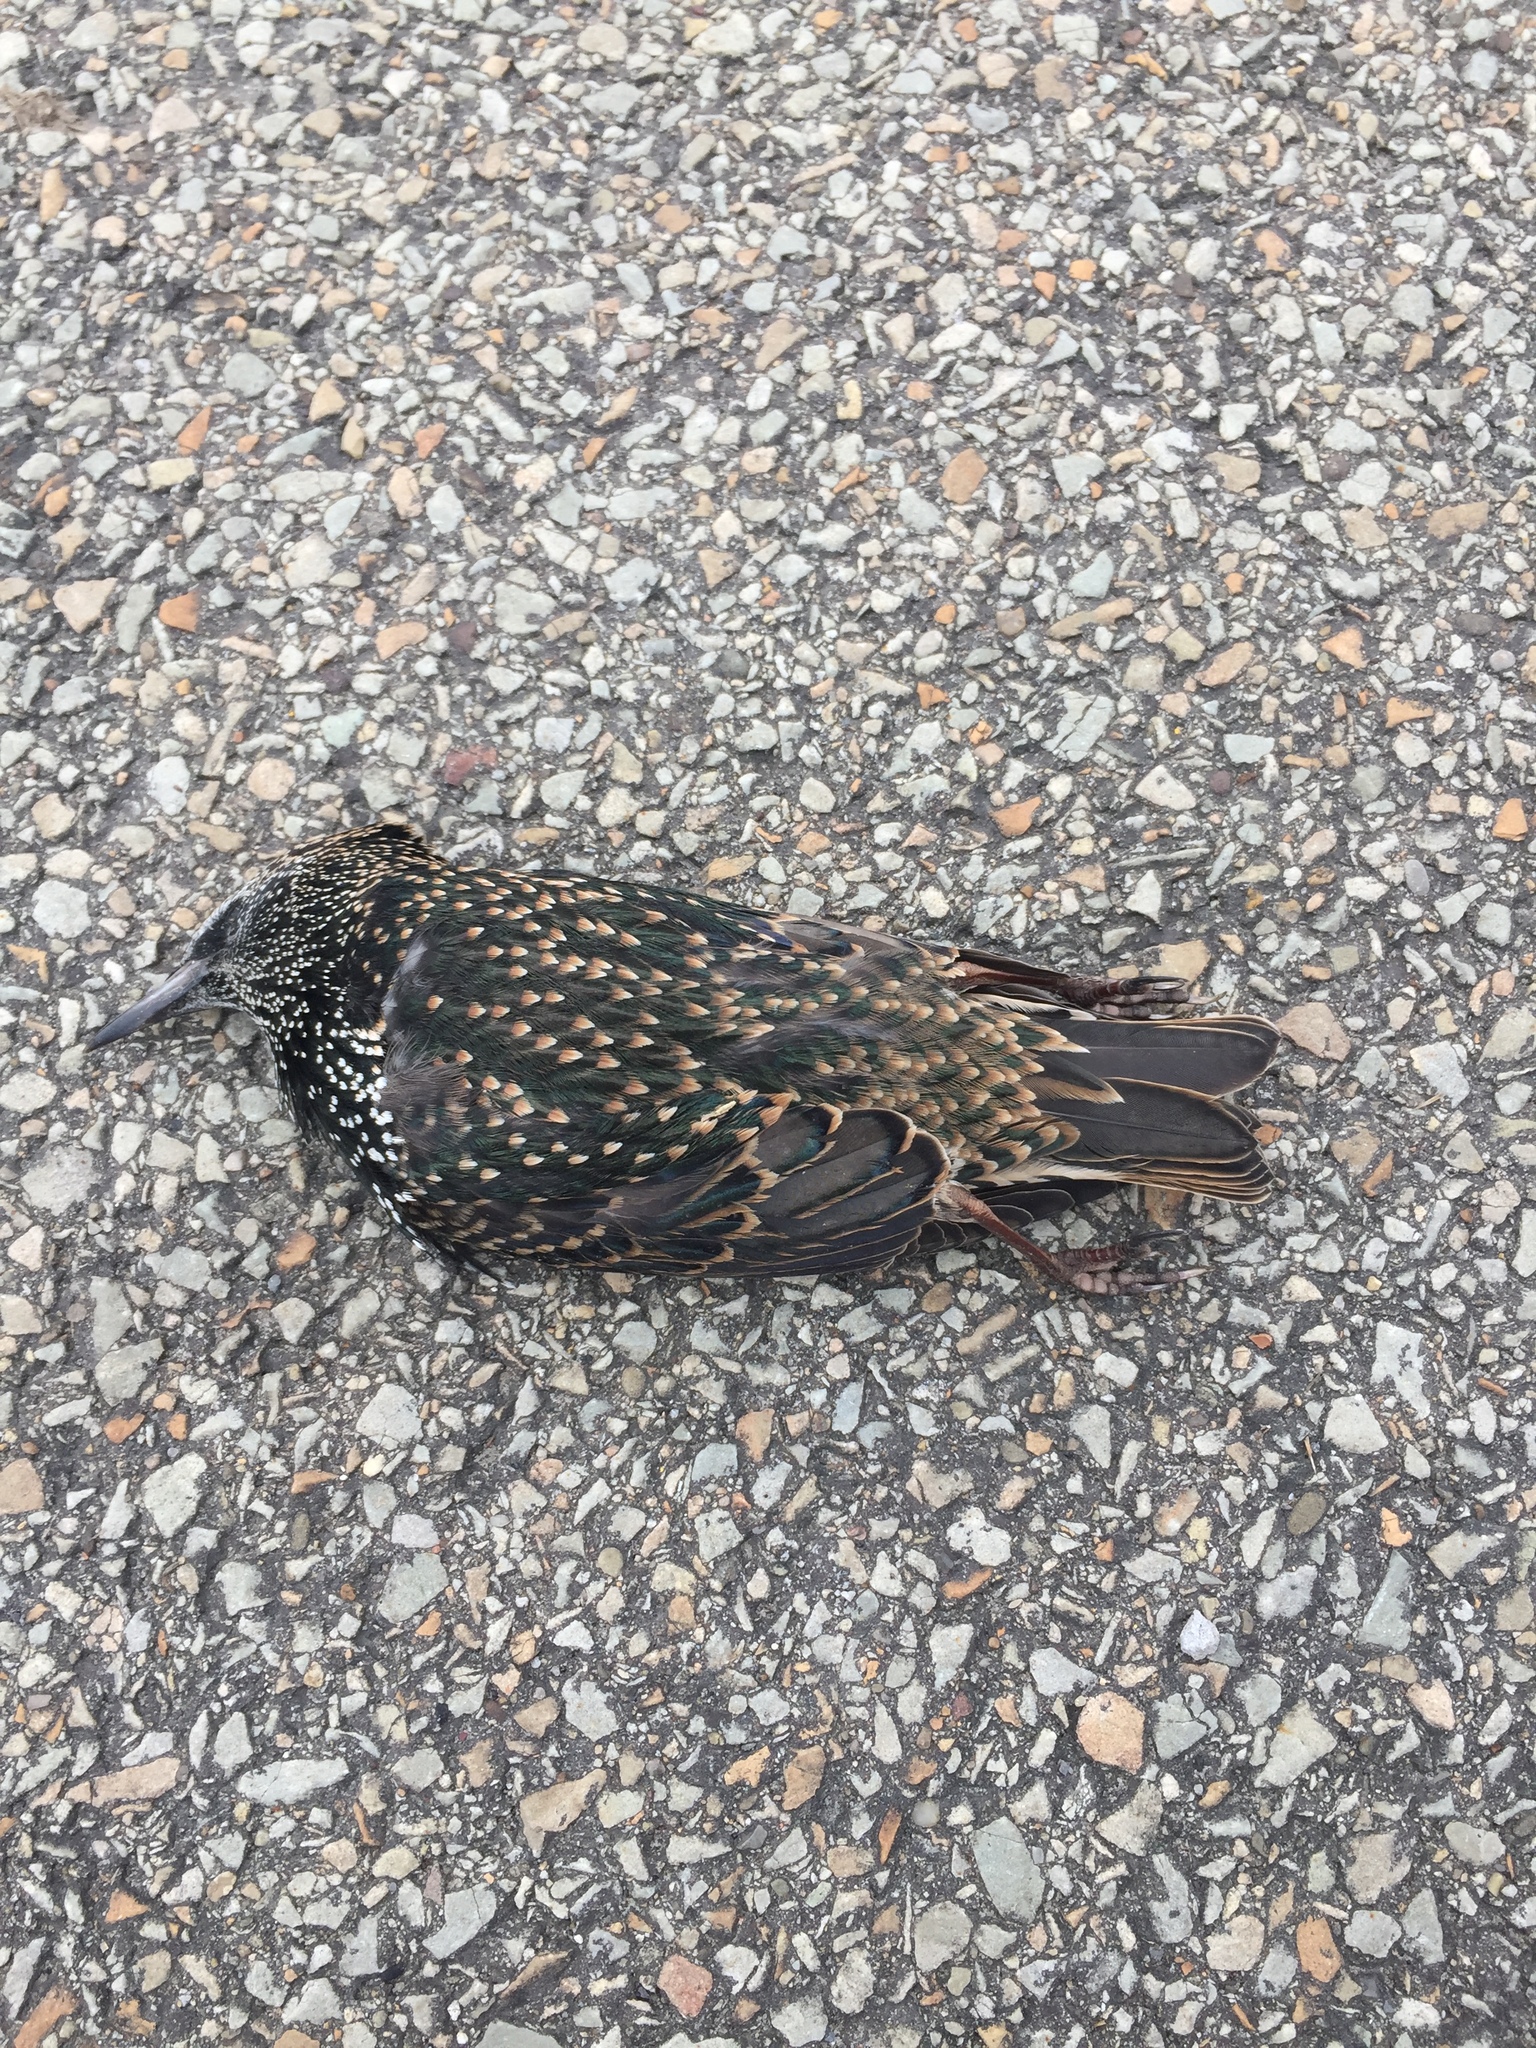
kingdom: Animalia
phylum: Chordata
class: Aves
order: Passeriformes
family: Sturnidae
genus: Sturnus
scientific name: Sturnus vulgaris
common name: Common starling
